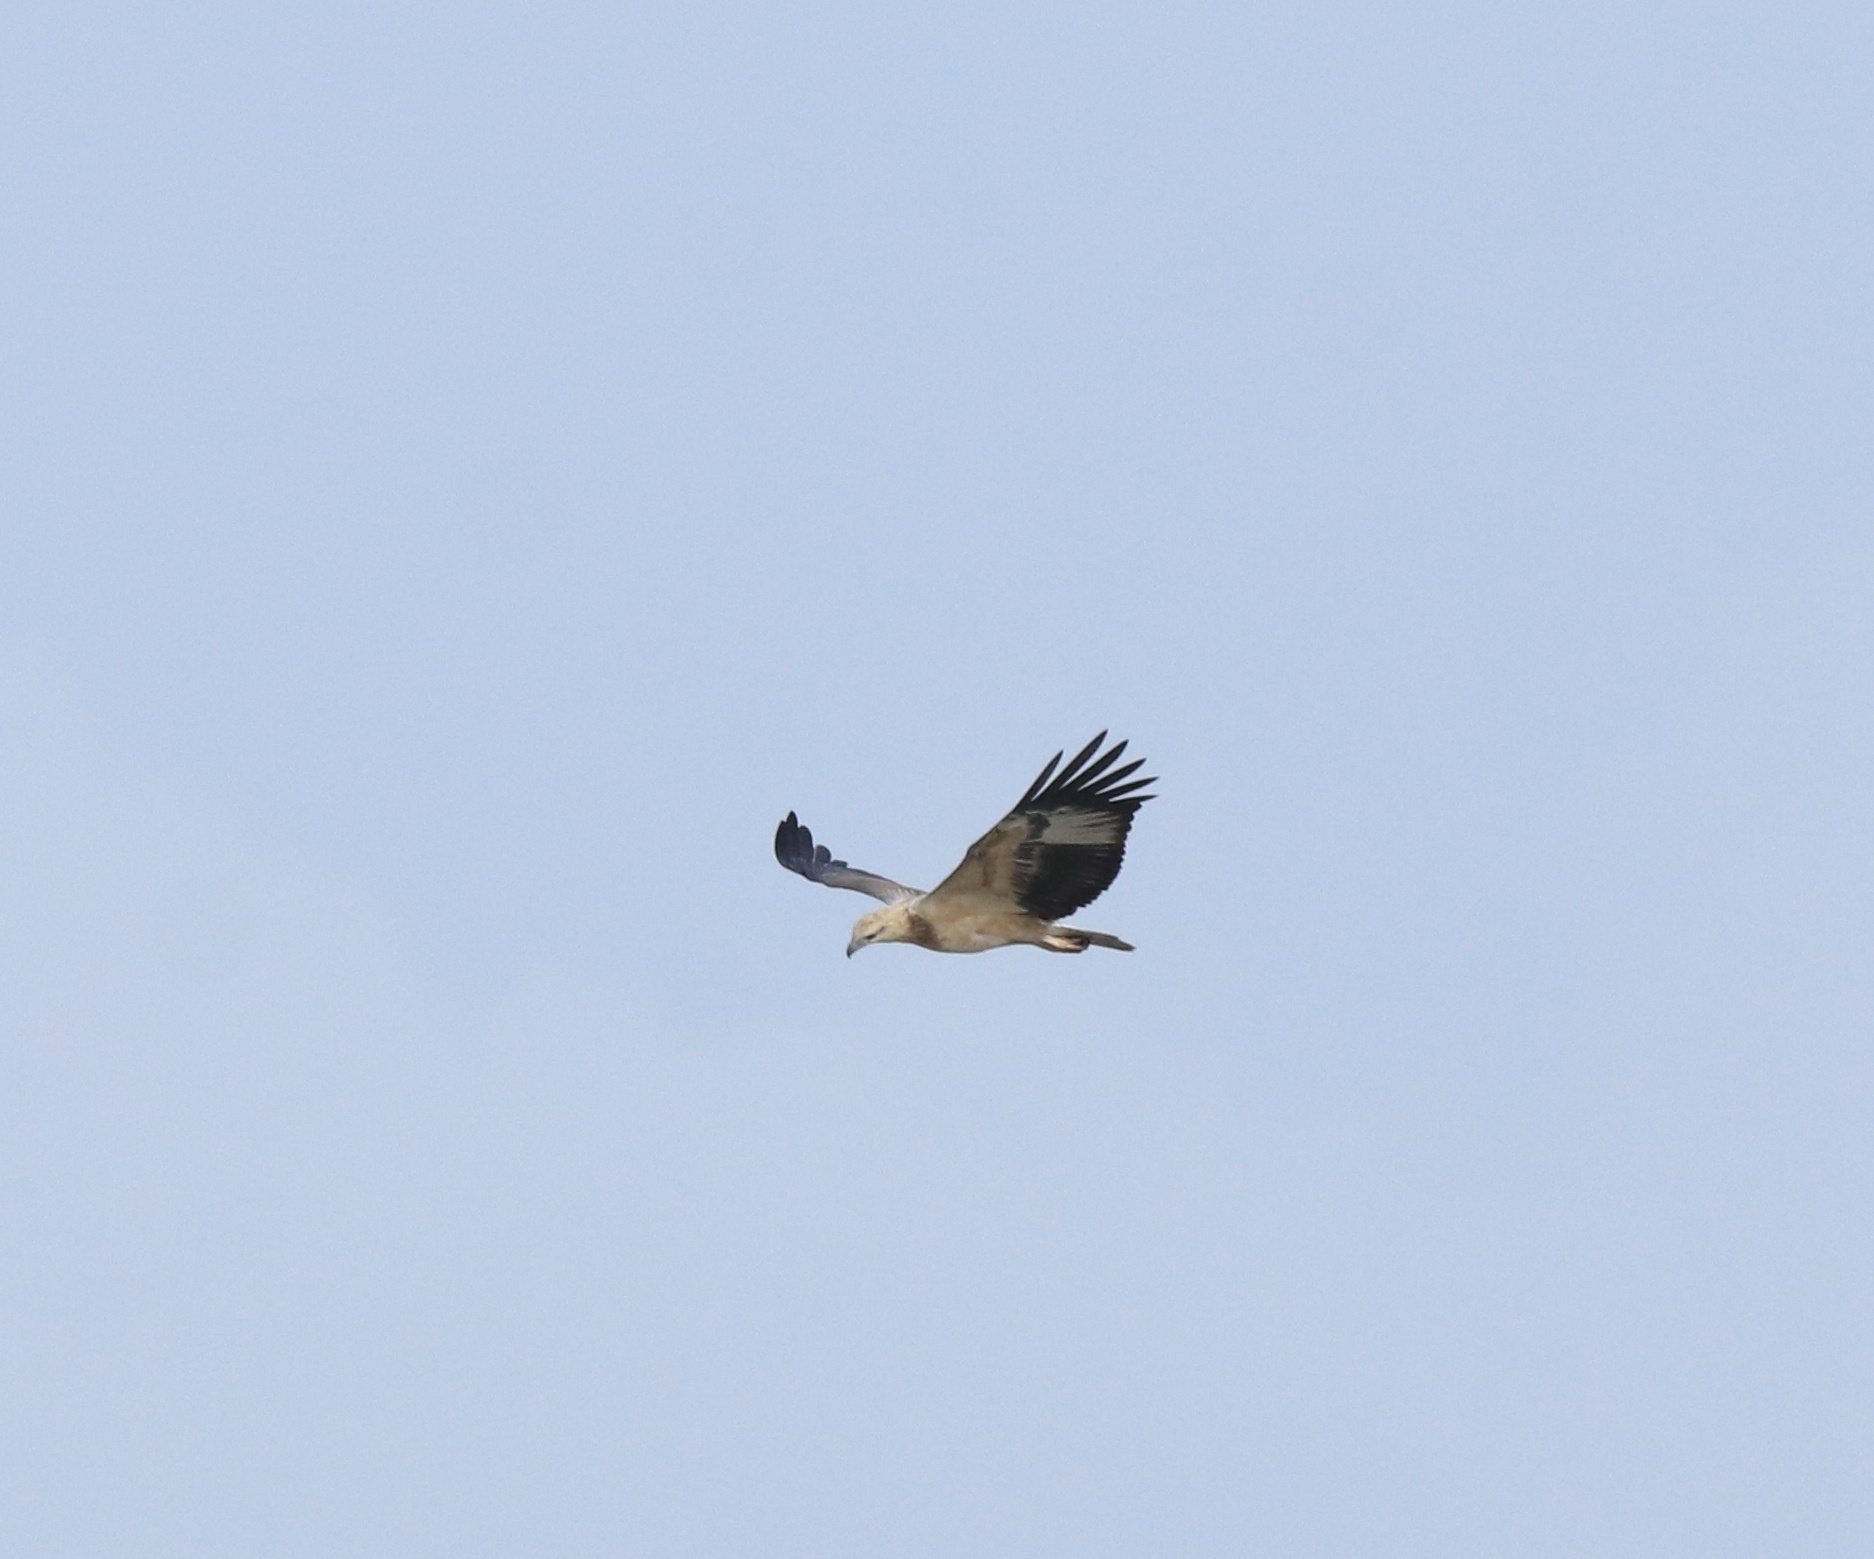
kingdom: Animalia
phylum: Chordata
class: Aves
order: Accipitriformes
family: Accipitridae
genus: Haliaeetus
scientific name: Haliaeetus leucogaster
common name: White-bellied sea eagle
